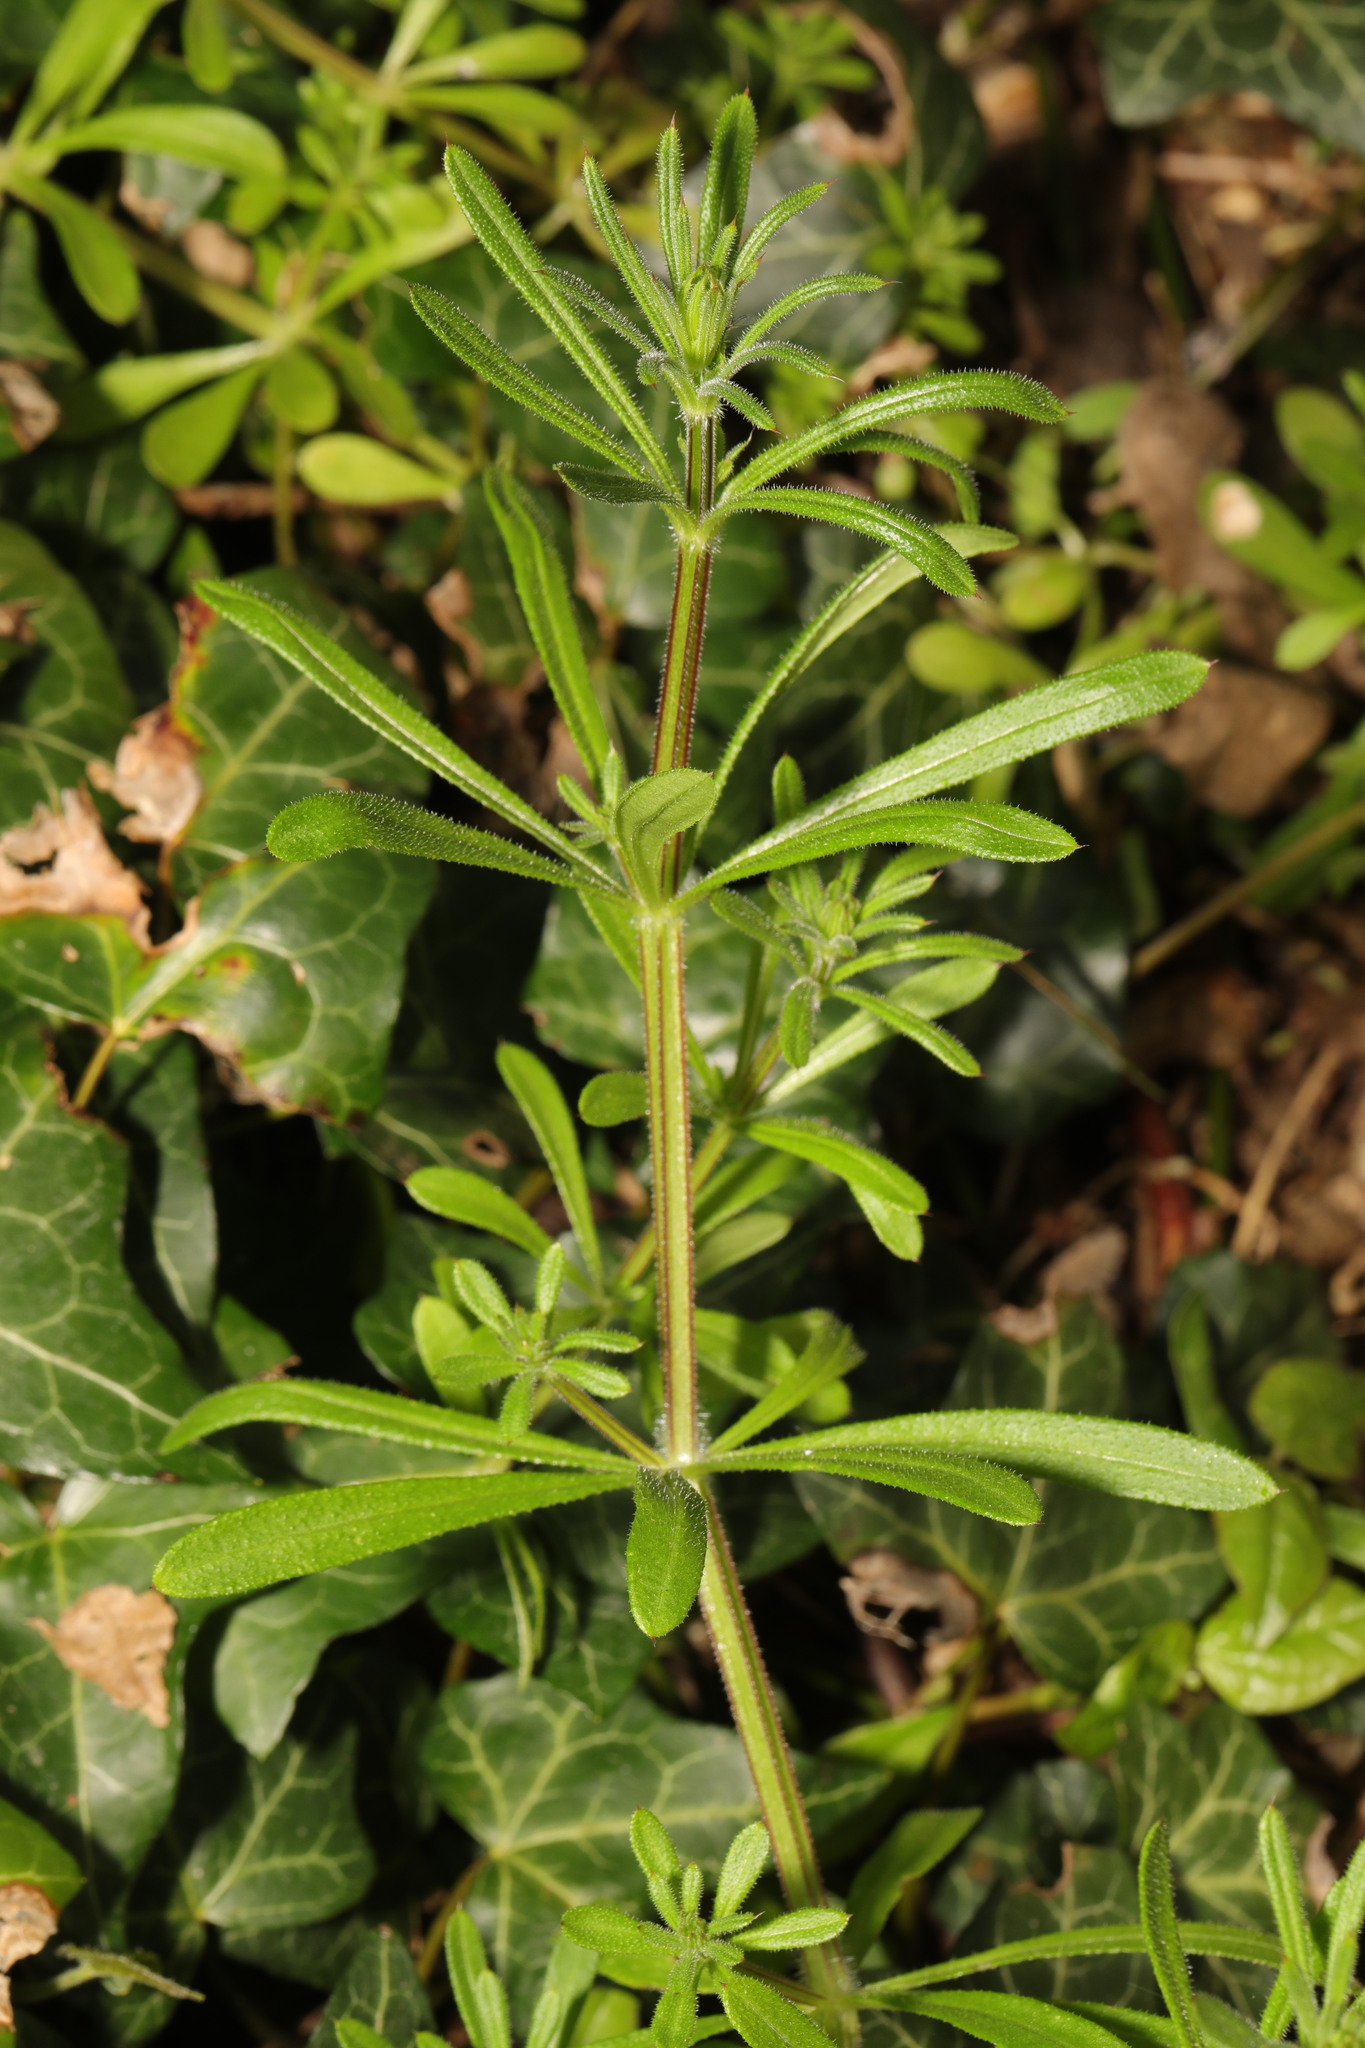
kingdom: Plantae
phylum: Tracheophyta
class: Magnoliopsida
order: Gentianales
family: Rubiaceae
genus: Galium
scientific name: Galium aparine
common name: Cleavers
